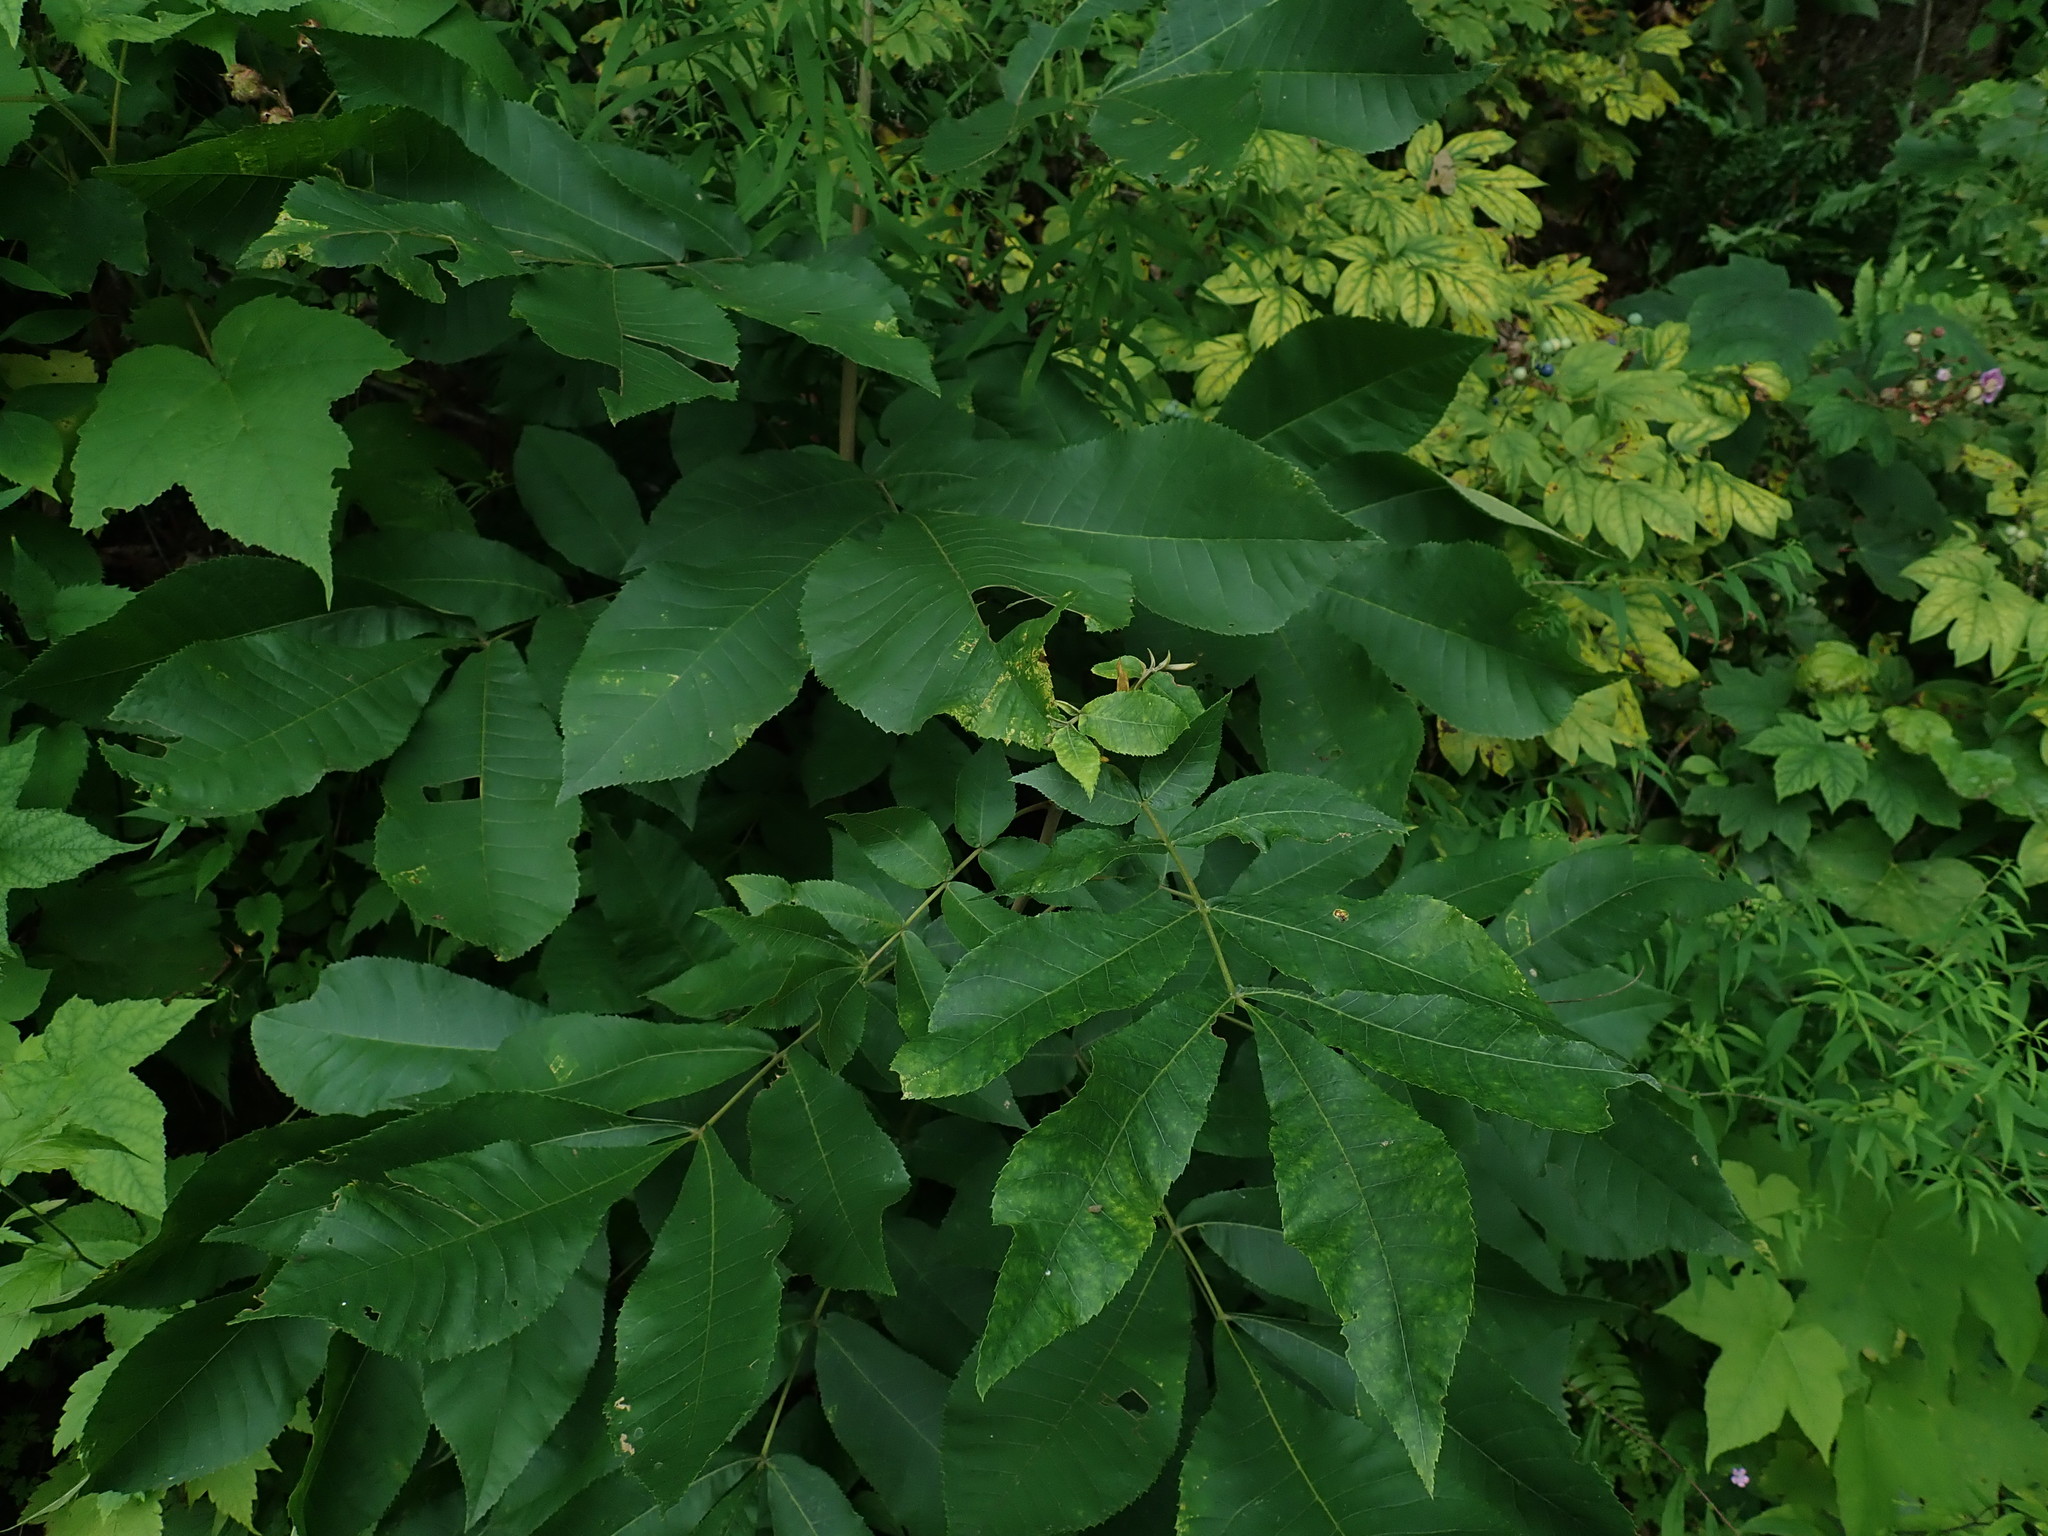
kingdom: Plantae
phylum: Tracheophyta
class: Magnoliopsida
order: Fagales
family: Juglandaceae
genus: Carya
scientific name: Carya cordiformis
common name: Bitternut hickory
